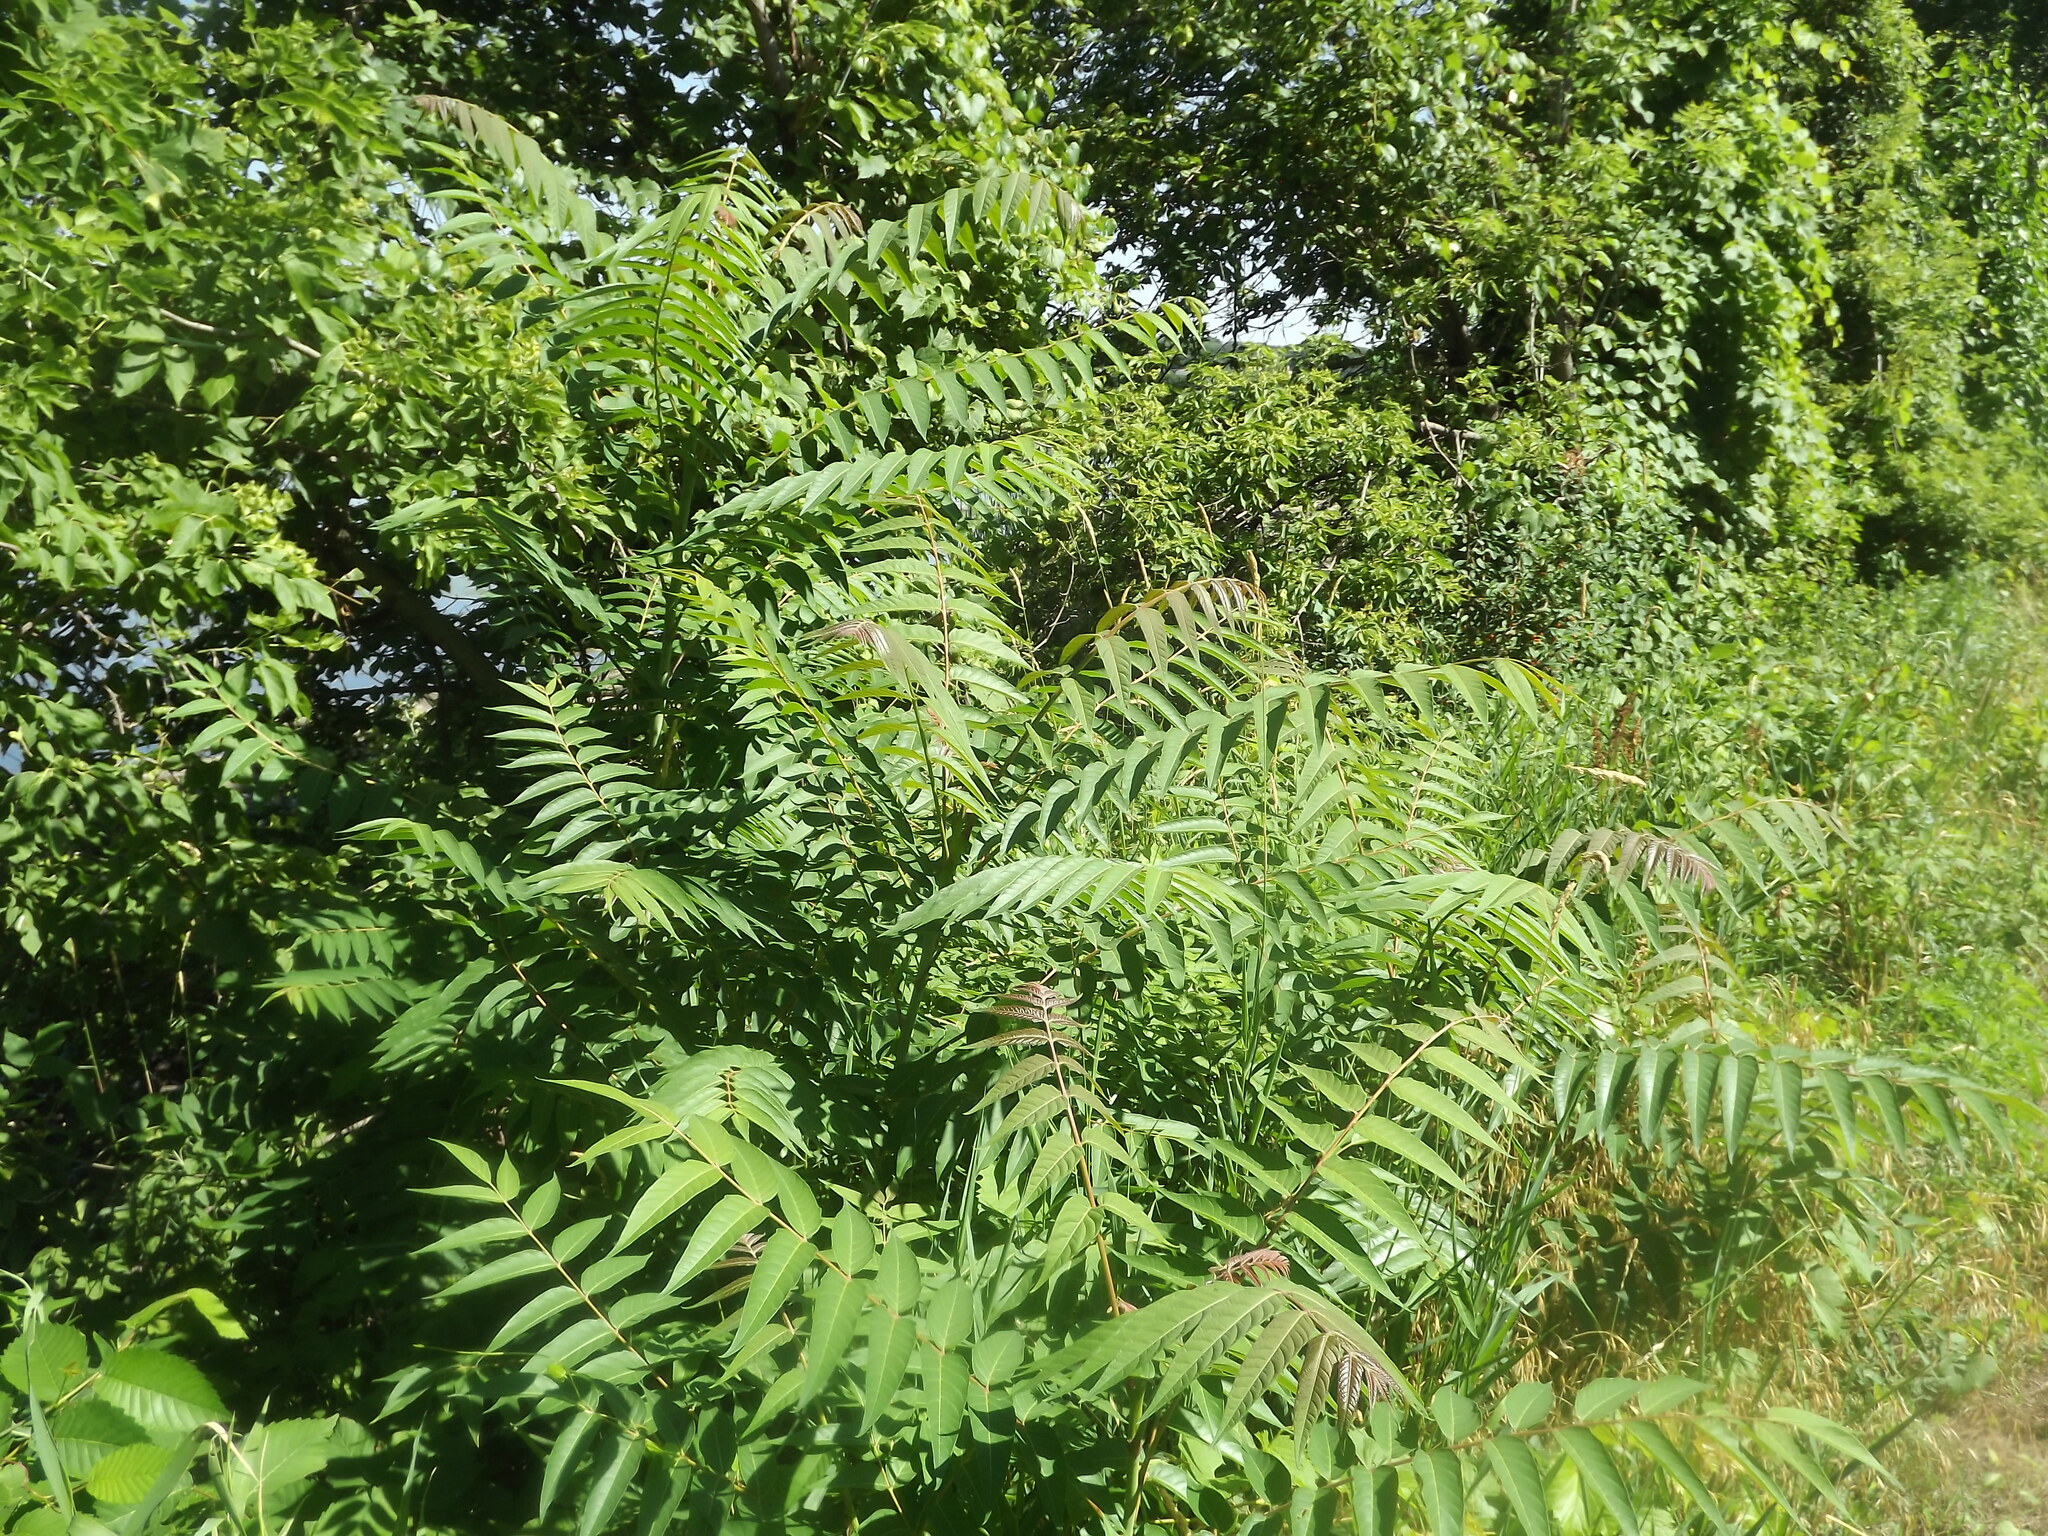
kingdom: Plantae
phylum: Tracheophyta
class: Magnoliopsida
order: Sapindales
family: Simaroubaceae
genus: Ailanthus
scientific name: Ailanthus altissima
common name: Tree-of-heaven
